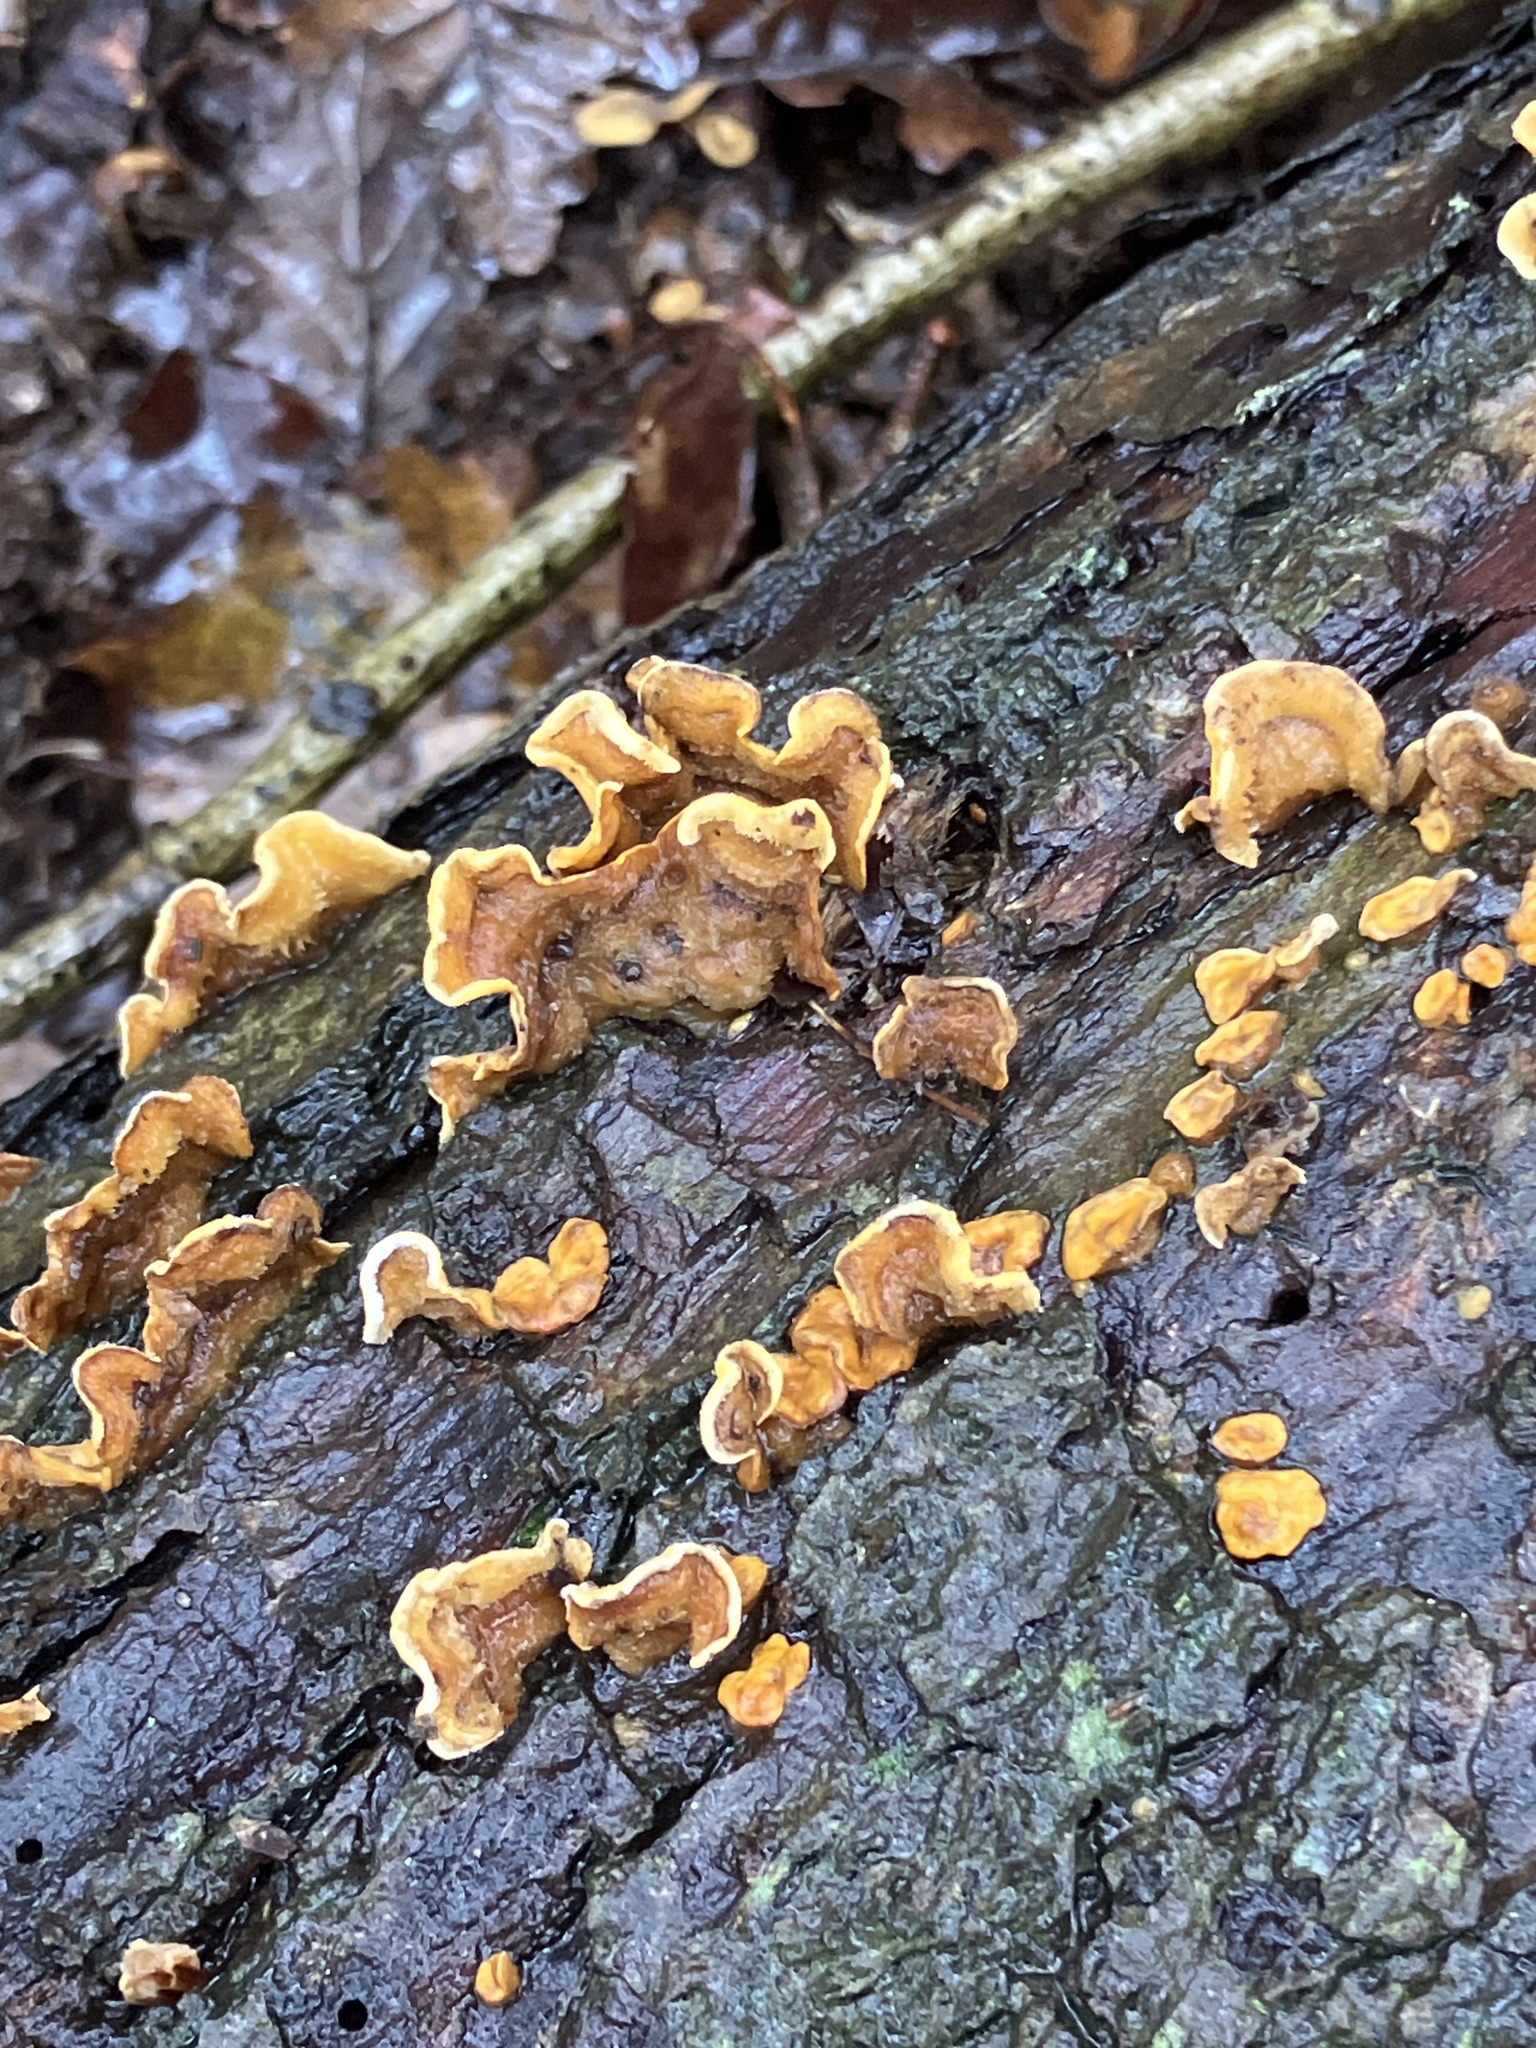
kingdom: Fungi
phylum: Basidiomycota
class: Agaricomycetes
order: Russulales
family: Stereaceae
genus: Stereum
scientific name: Stereum hirsutum
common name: Hairy curtain crust
